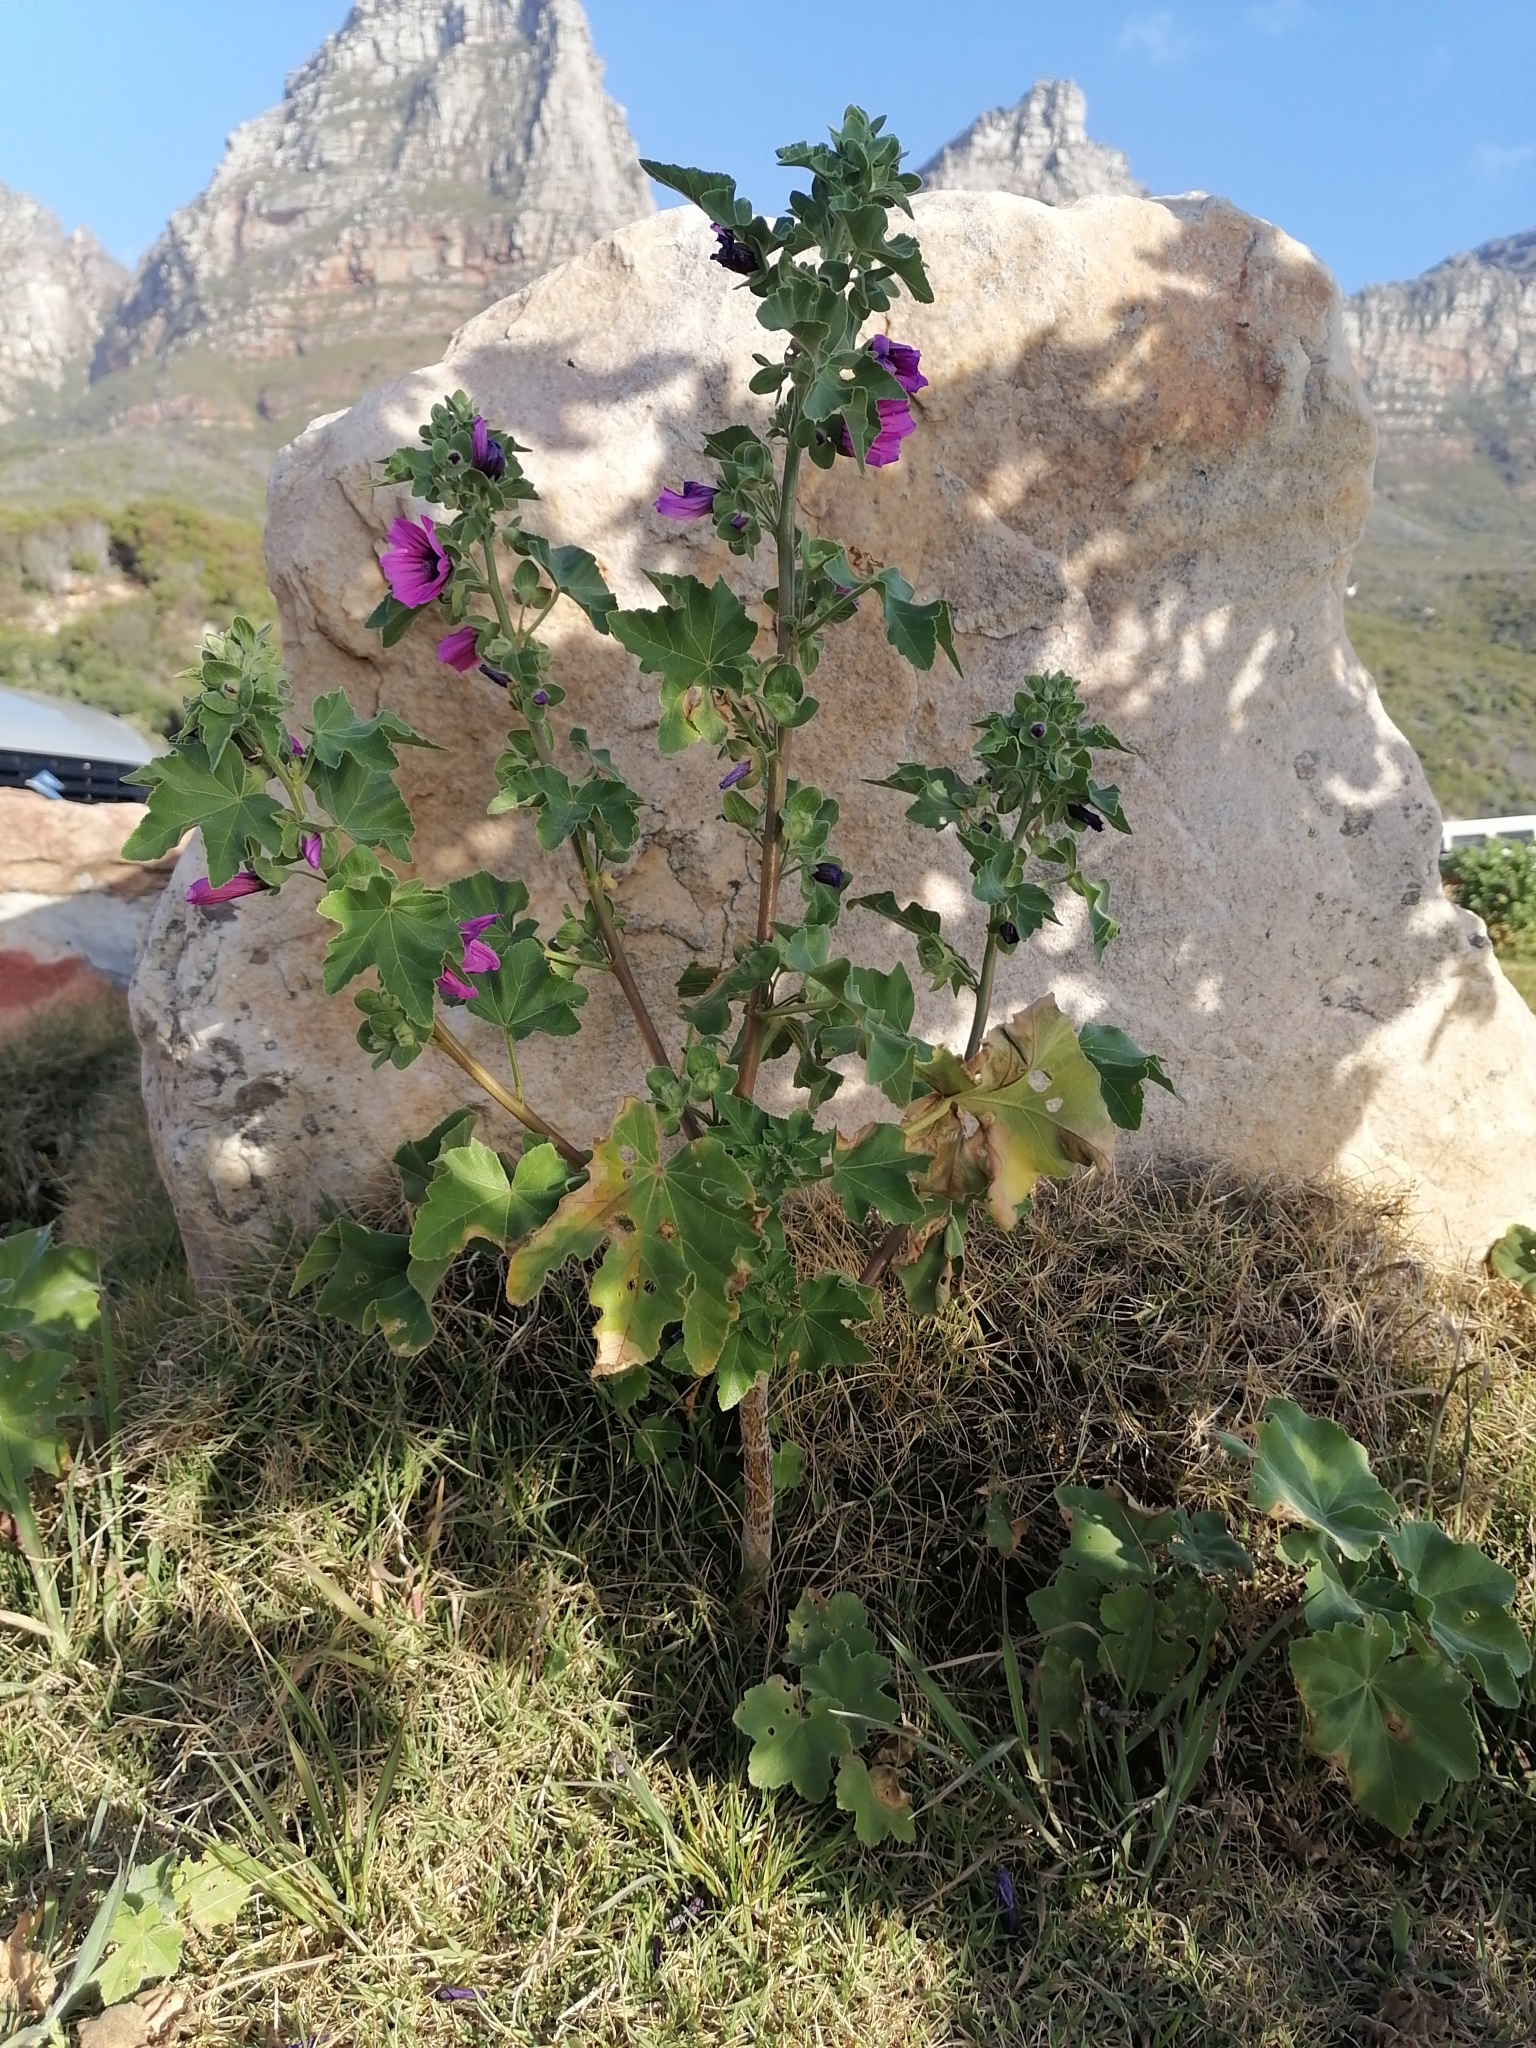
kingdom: Plantae
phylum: Tracheophyta
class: Magnoliopsida
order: Malvales
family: Malvaceae
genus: Malva
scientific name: Malva arborea
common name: Tree mallow
